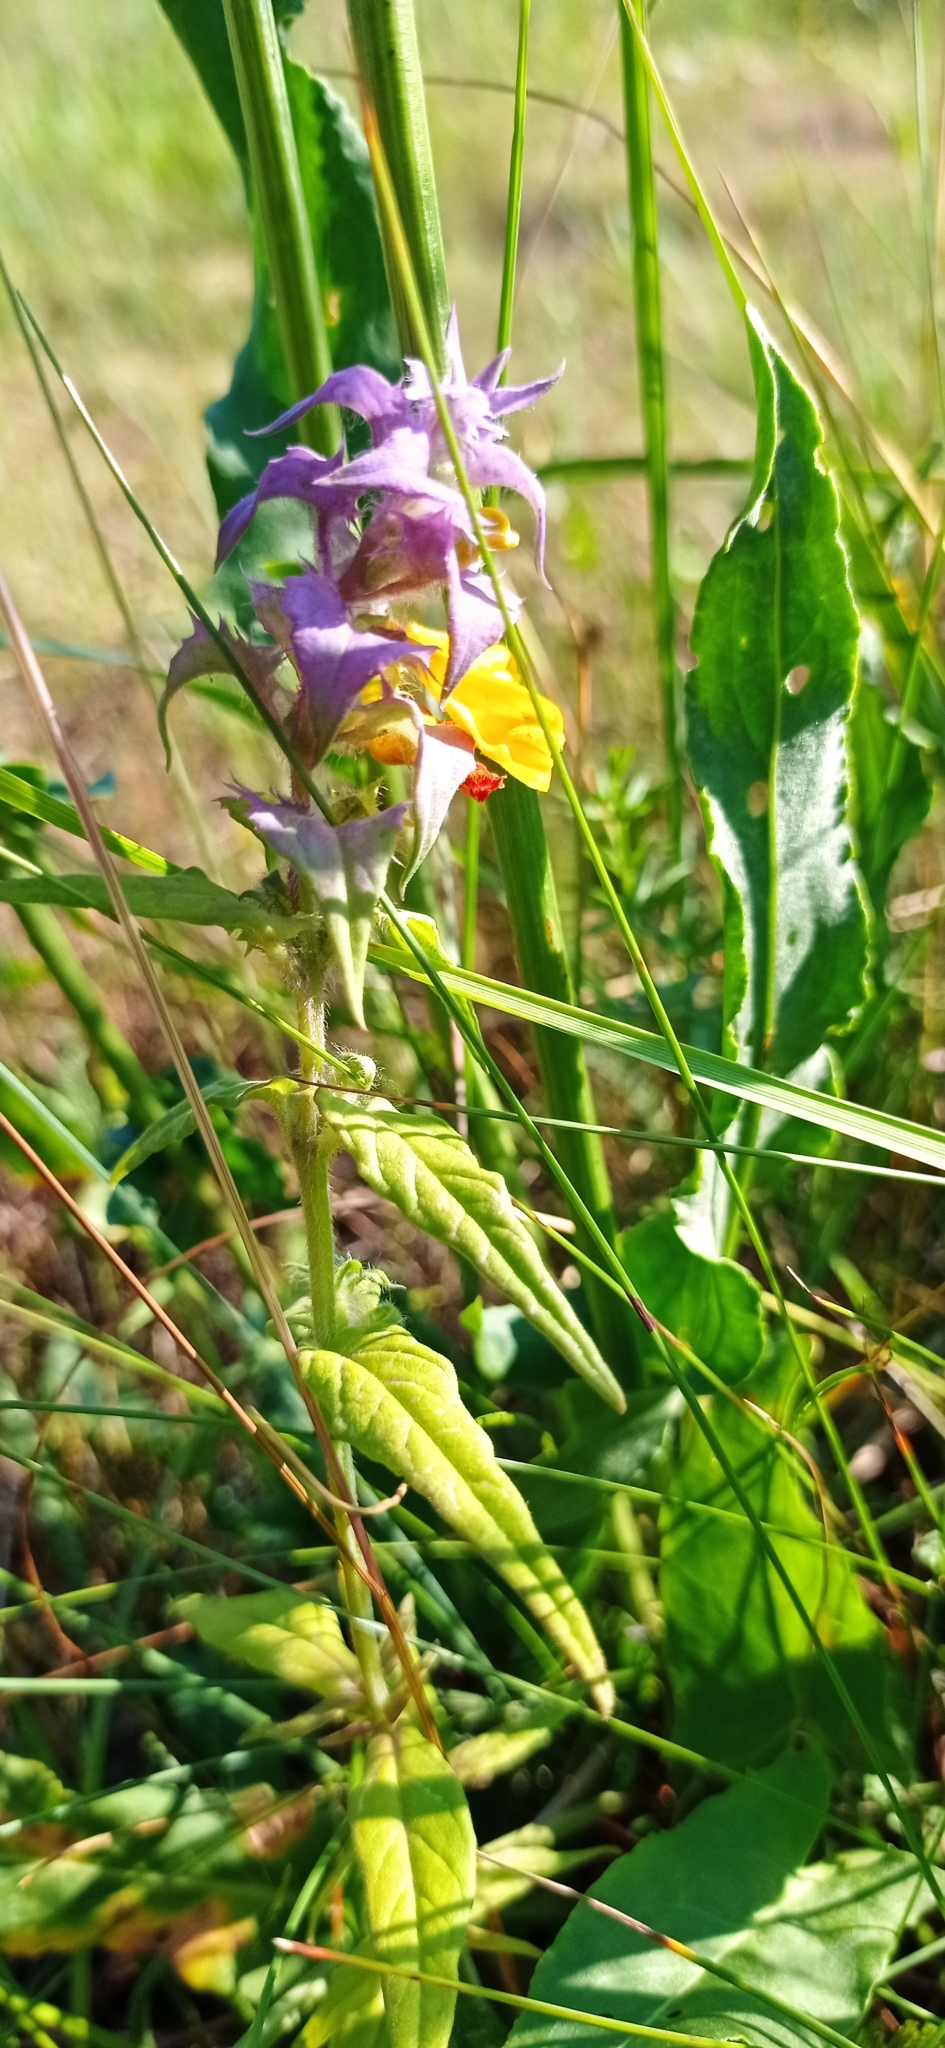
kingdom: Plantae
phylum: Tracheophyta
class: Magnoliopsida
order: Lamiales
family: Orobanchaceae
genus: Melampyrum
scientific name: Melampyrum nemorosum
